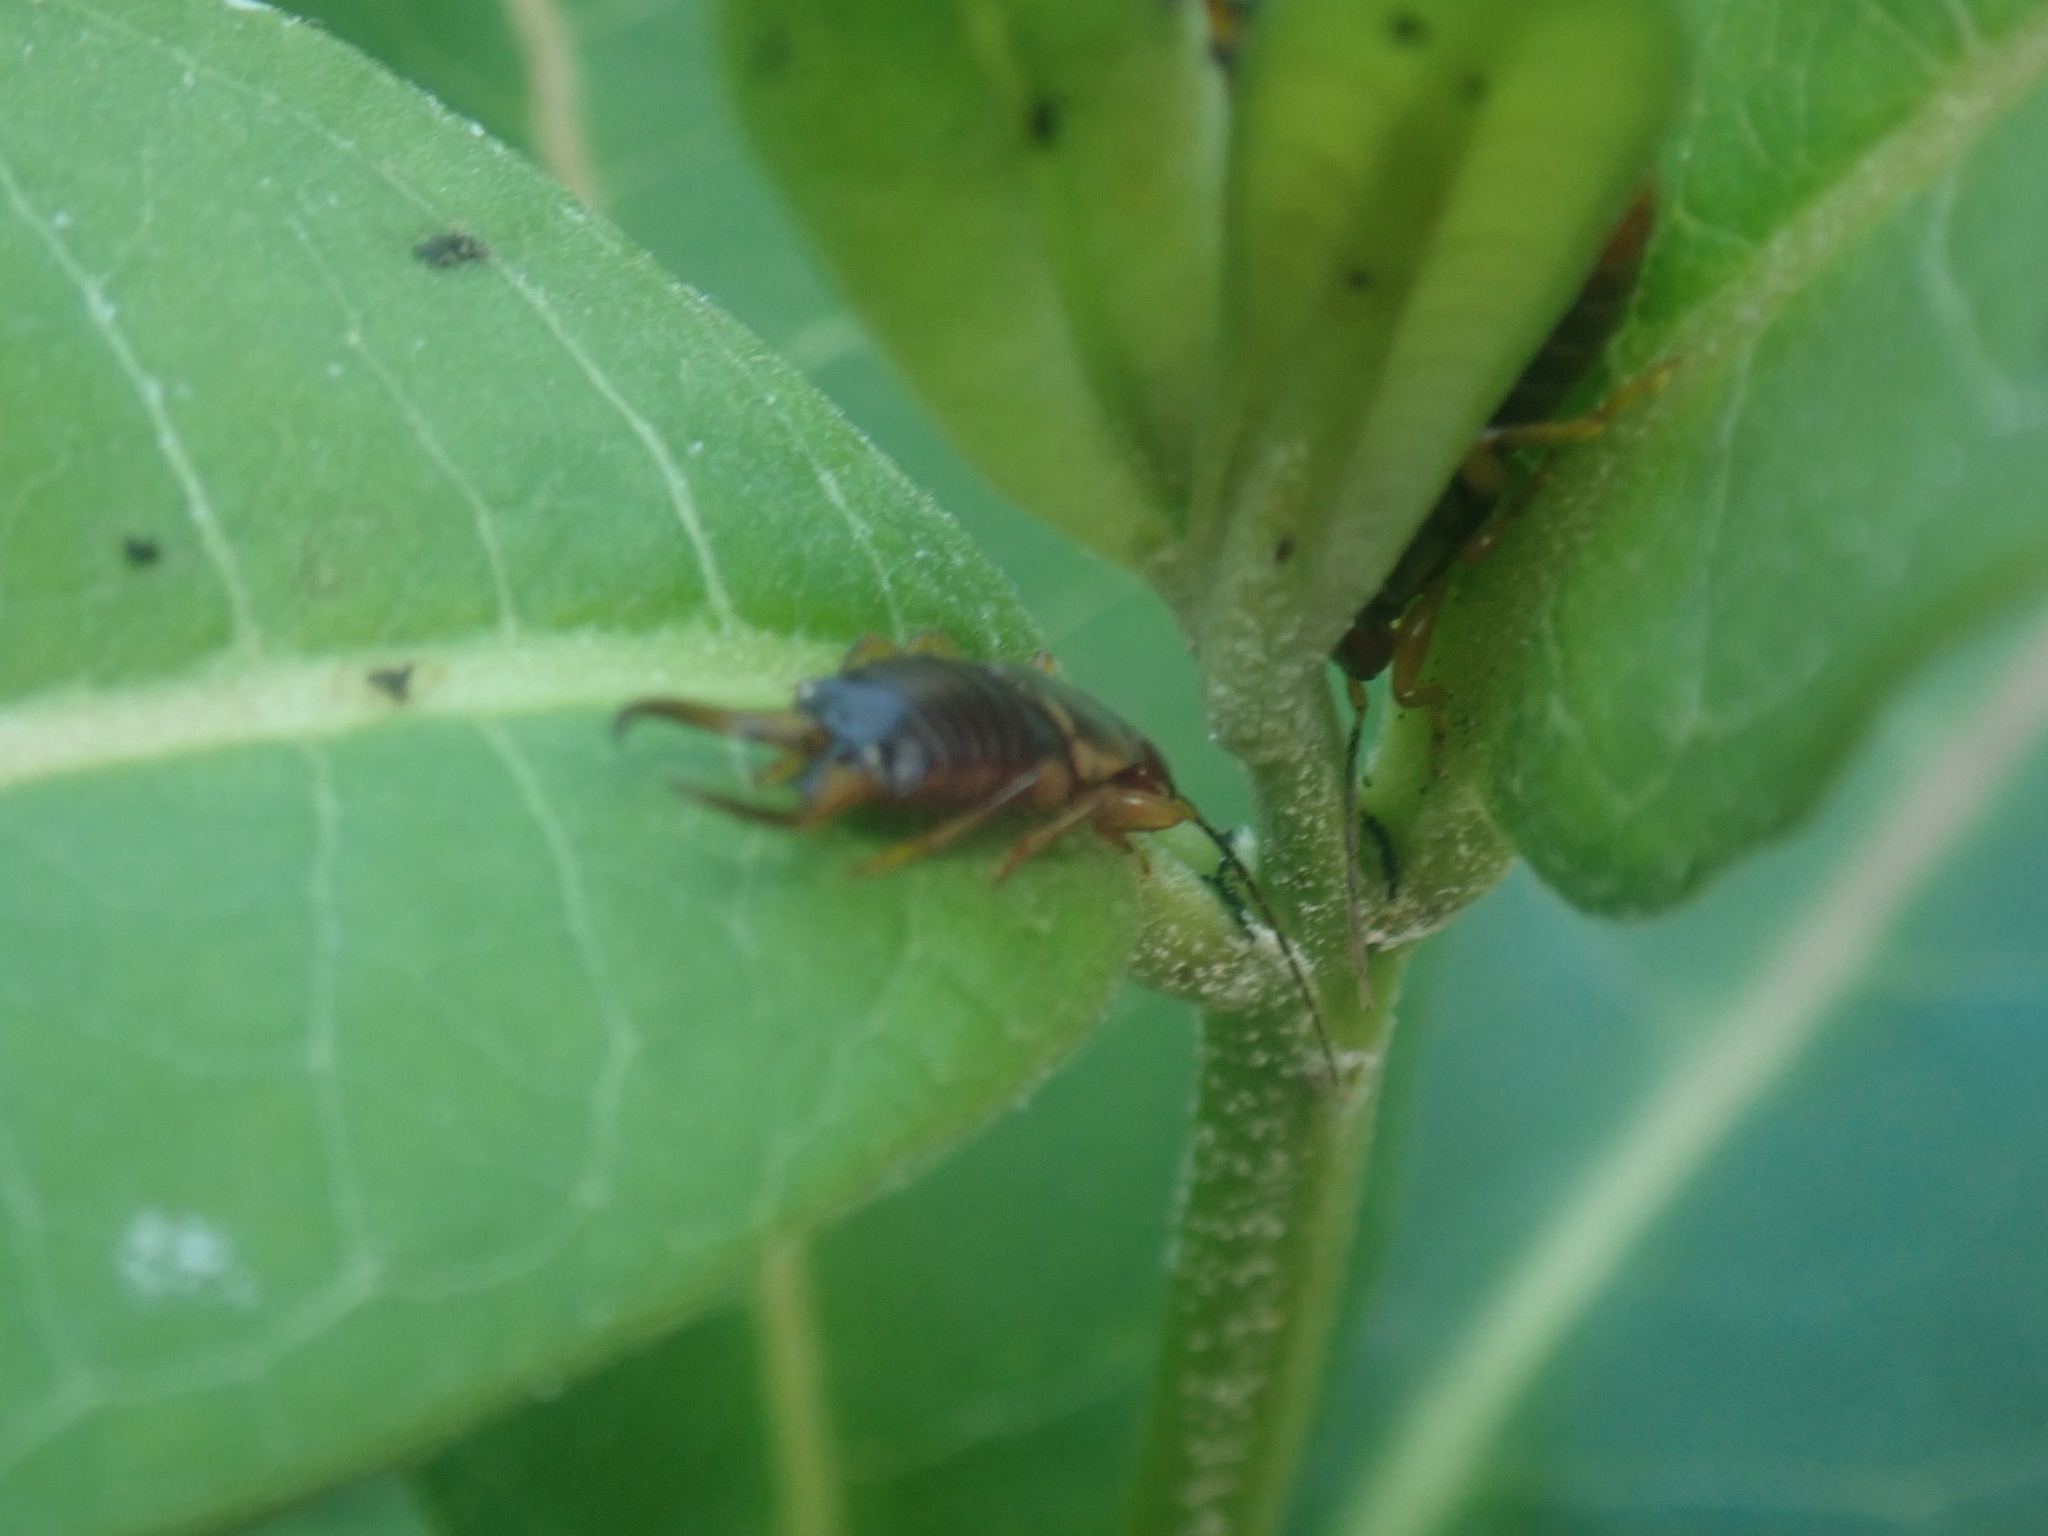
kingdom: Animalia
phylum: Arthropoda
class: Insecta
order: Dermaptera
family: Forficulidae
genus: Forficula
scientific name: Forficula auricularia
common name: European earwig
